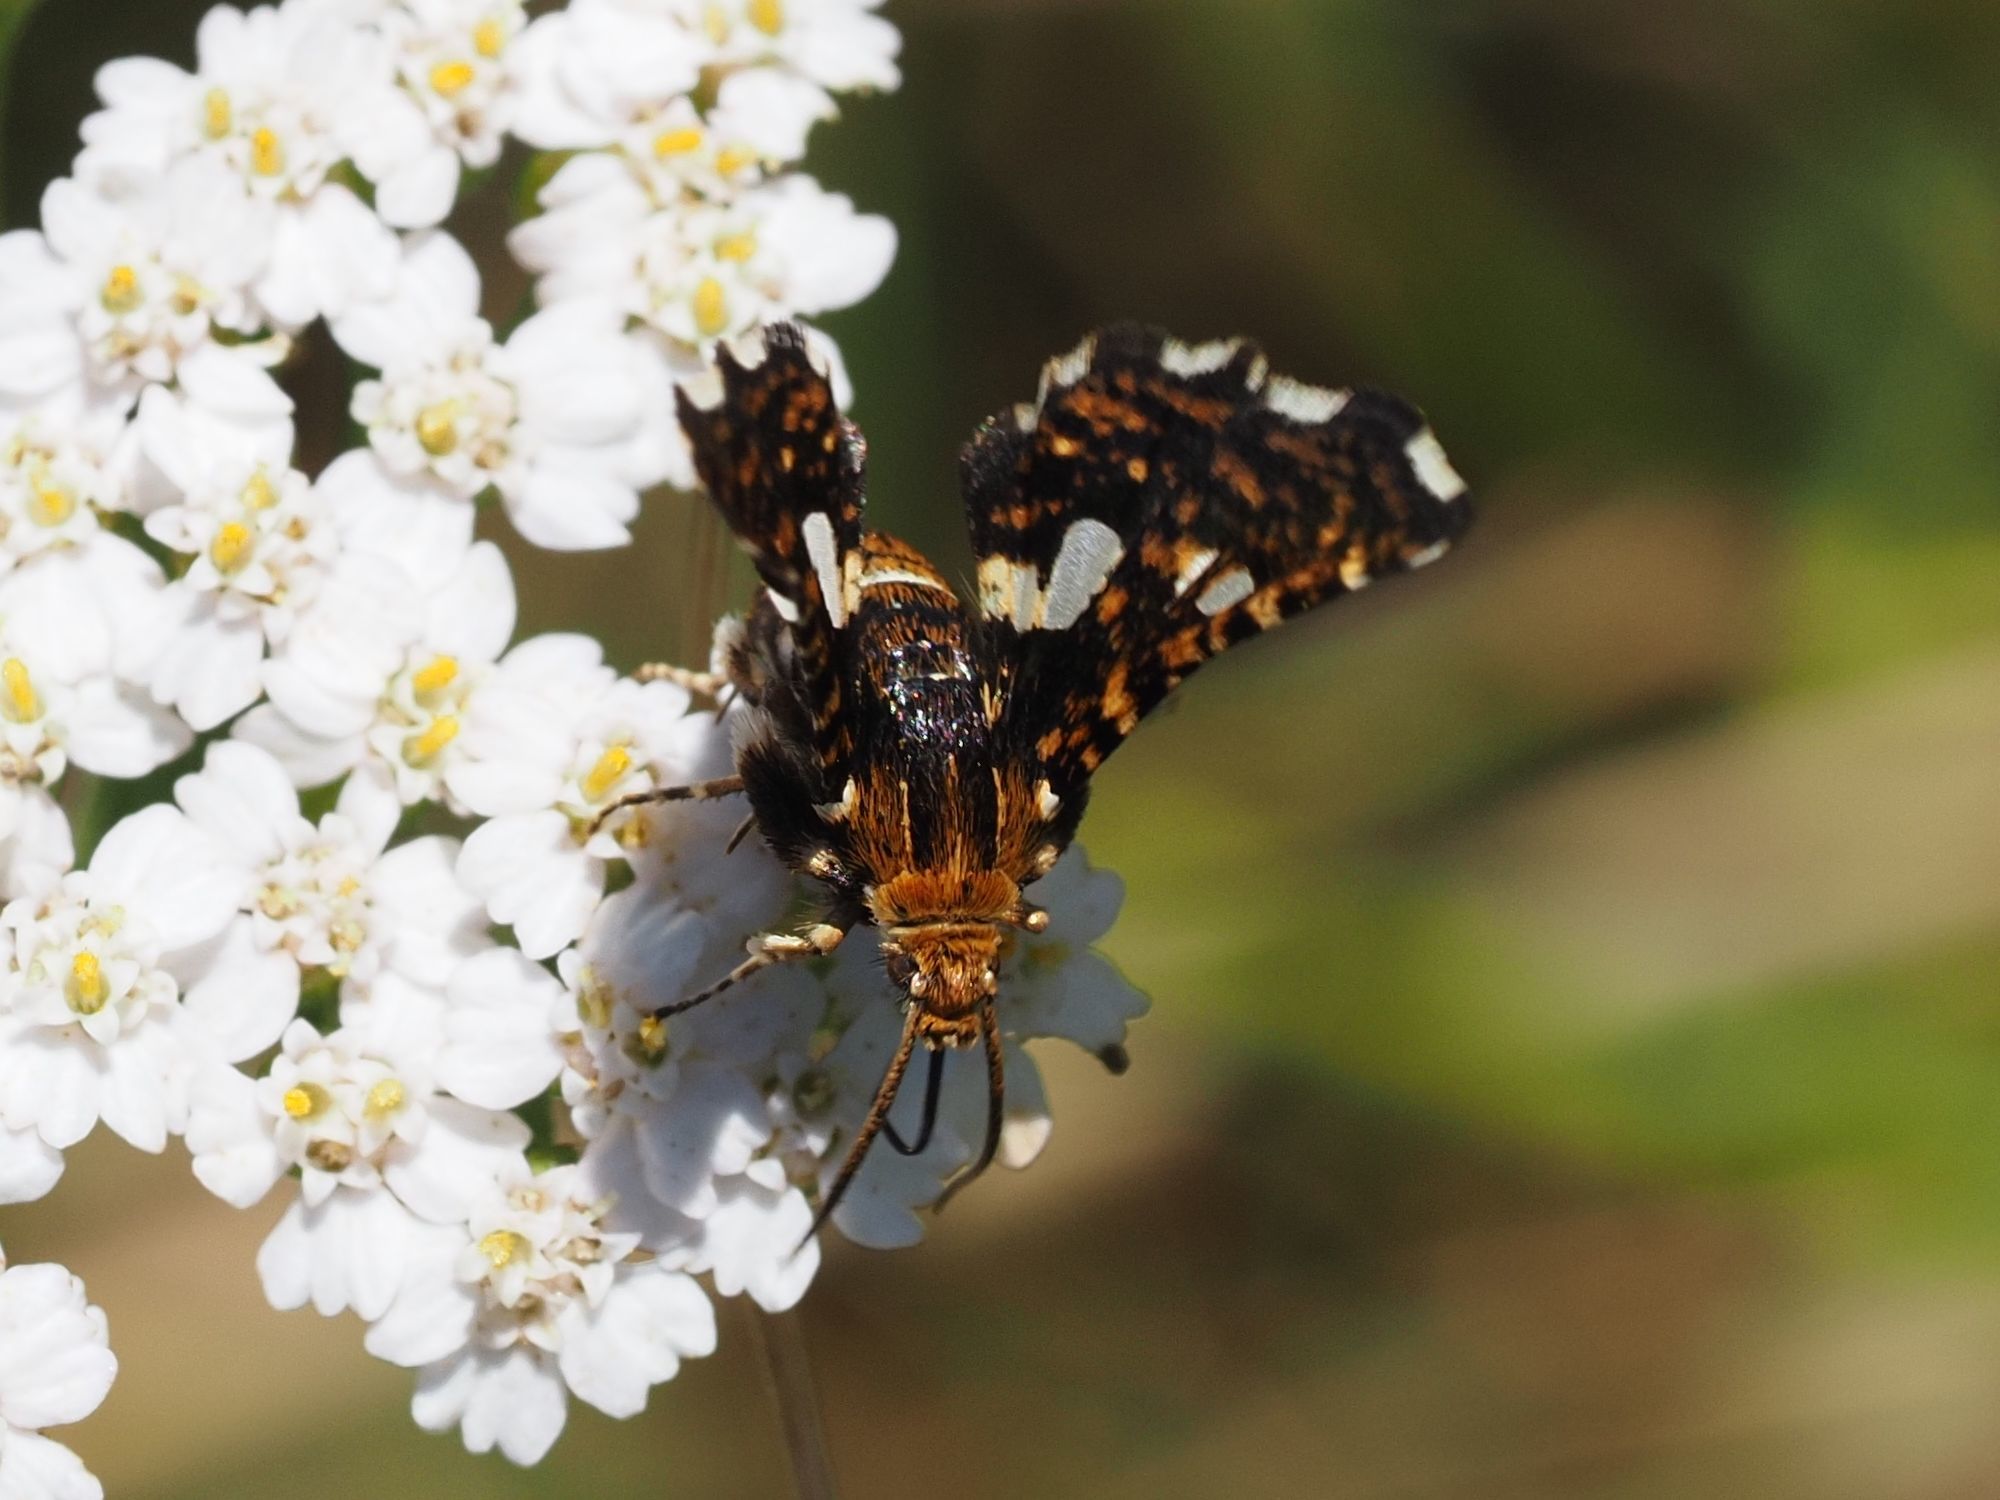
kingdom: Animalia
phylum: Arthropoda
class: Insecta
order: Lepidoptera
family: Thyrididae
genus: Thyris
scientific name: Thyris fenestrella
